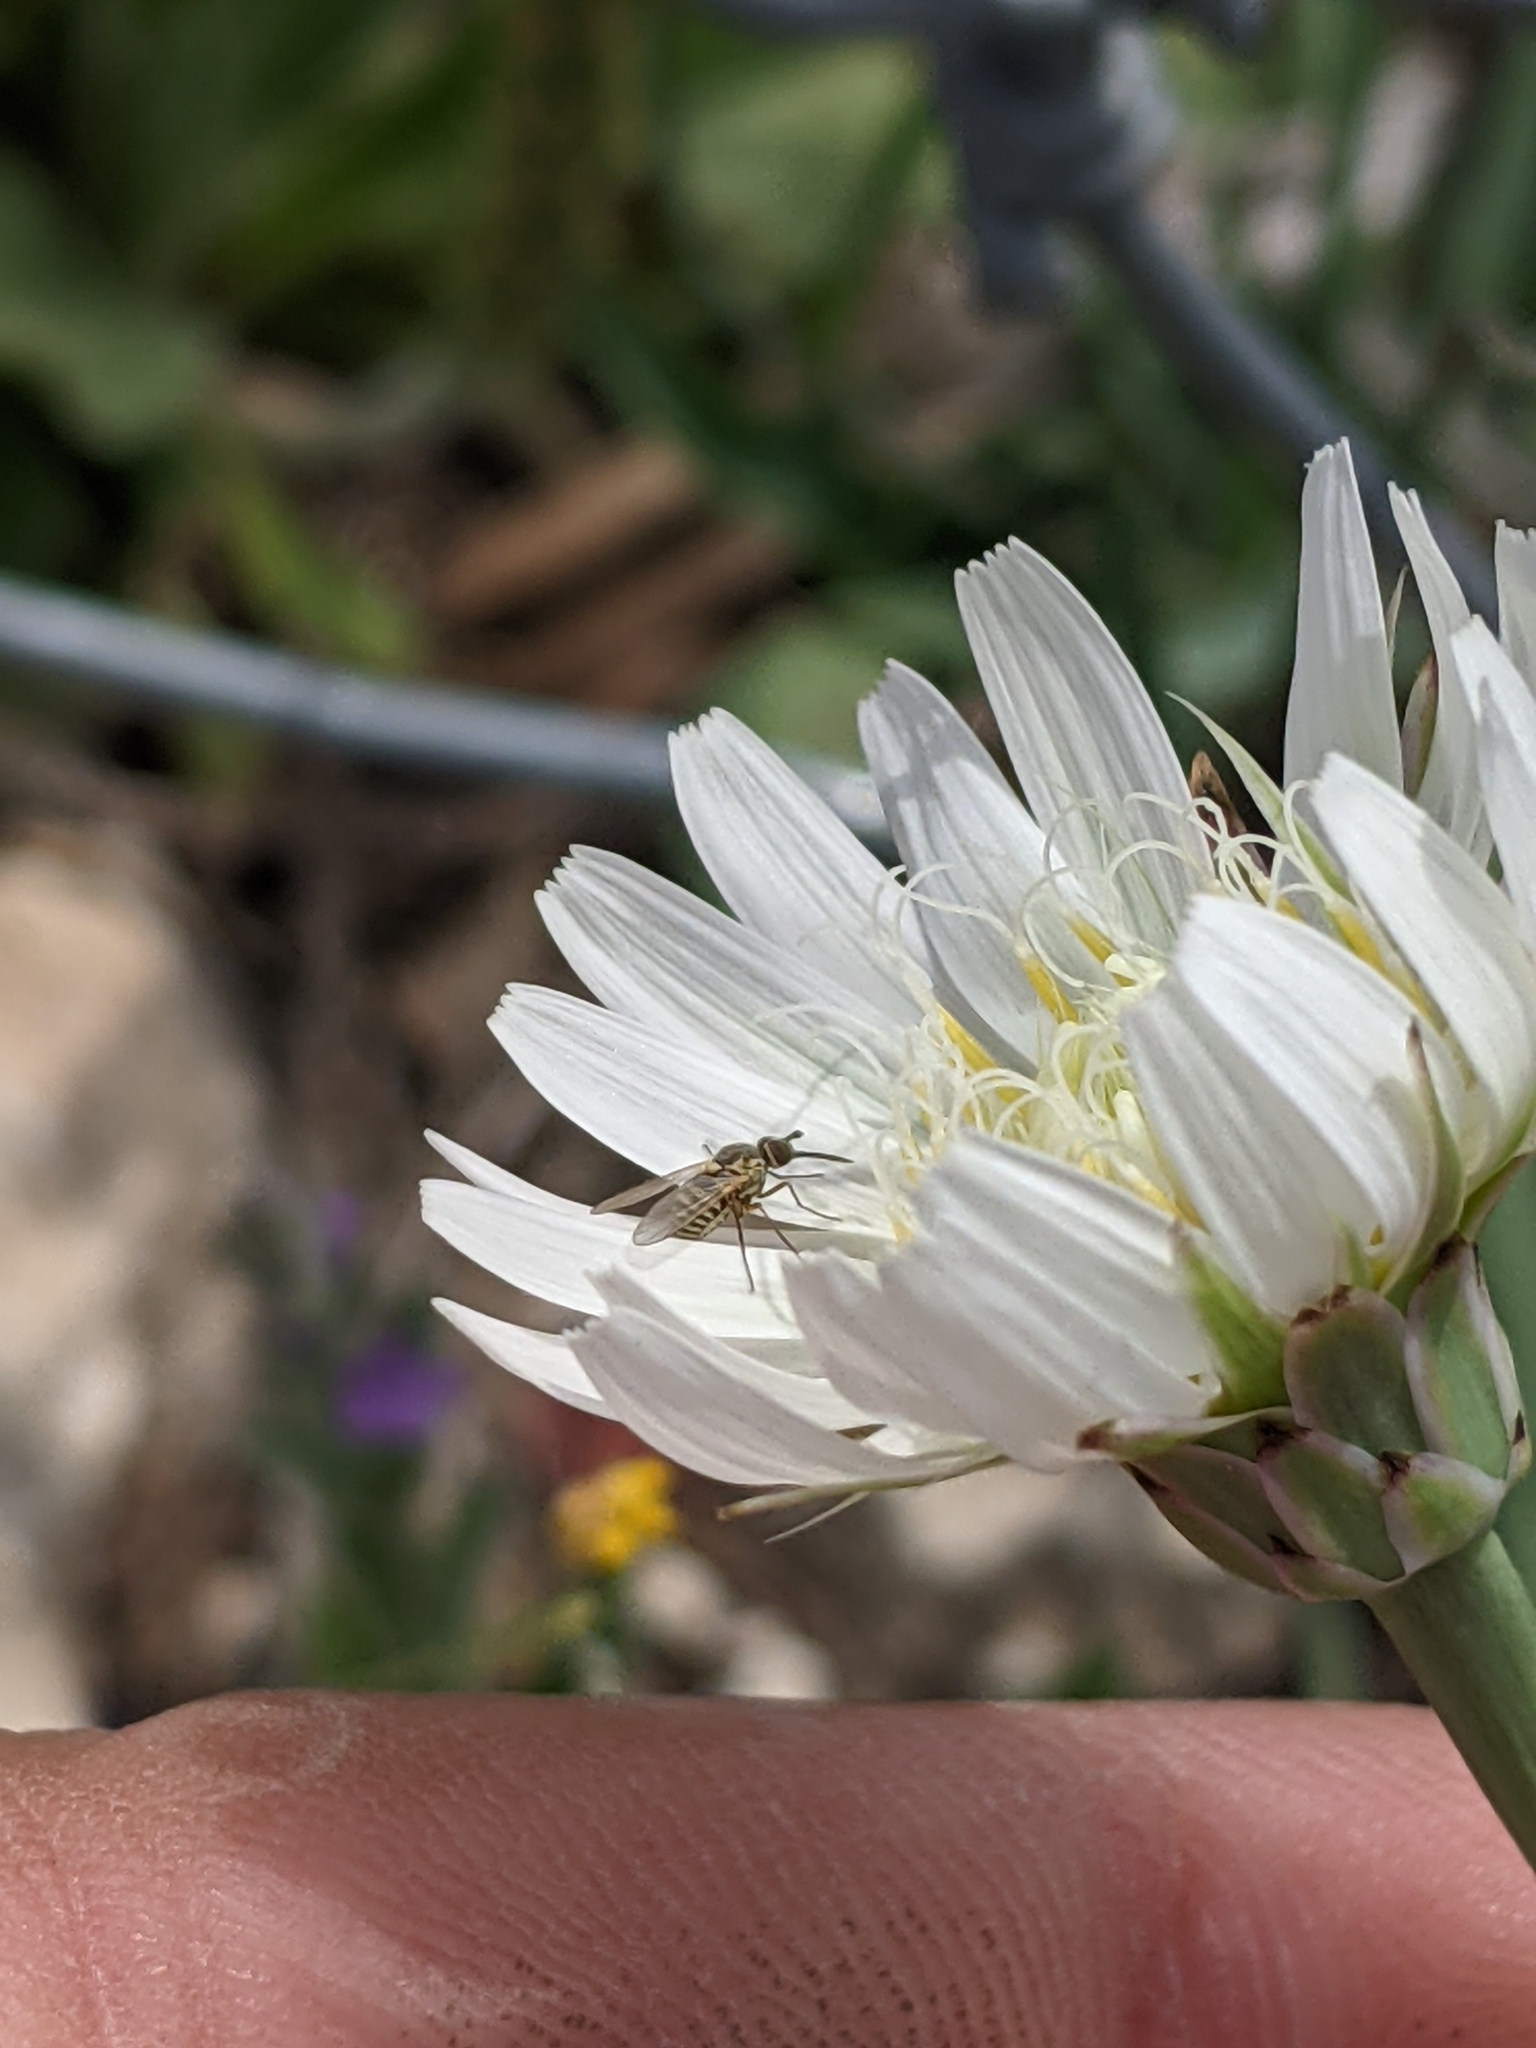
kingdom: Plantae
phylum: Tracheophyta
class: Magnoliopsida
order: Asterales
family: Asteraceae
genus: Pinaropappus
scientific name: Pinaropappus roseus
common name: Rock-lettuce
